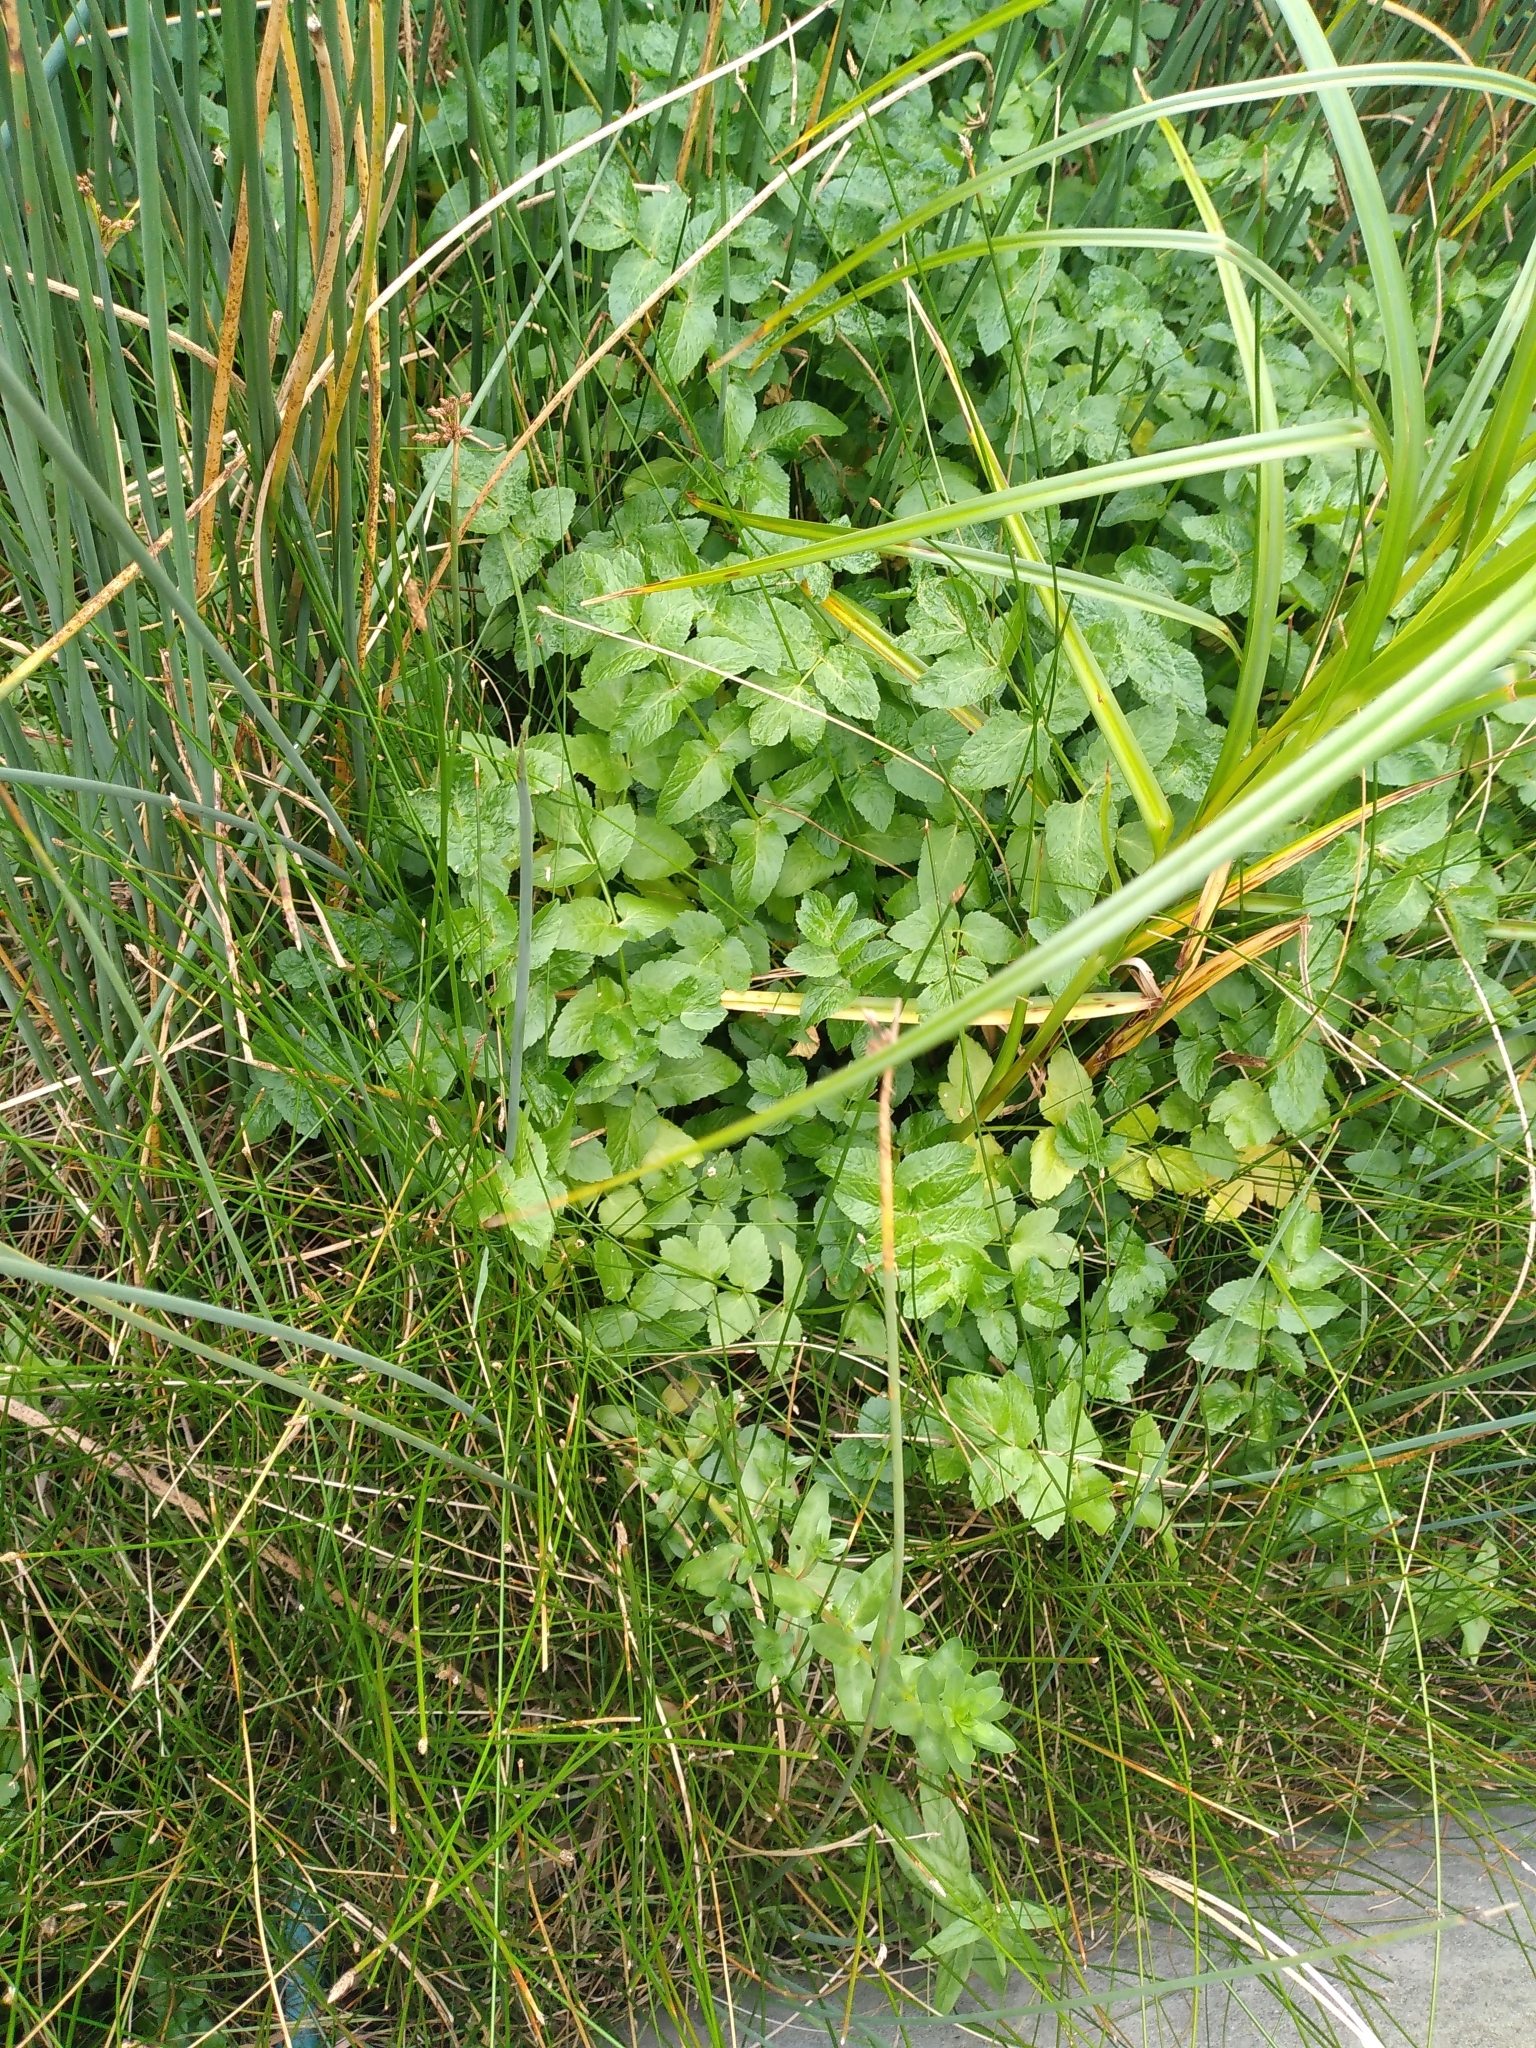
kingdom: Plantae
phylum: Tracheophyta
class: Magnoliopsida
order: Apiales
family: Apiaceae
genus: Helosciadium
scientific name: Helosciadium nodiflorum
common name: Fool's-watercress
